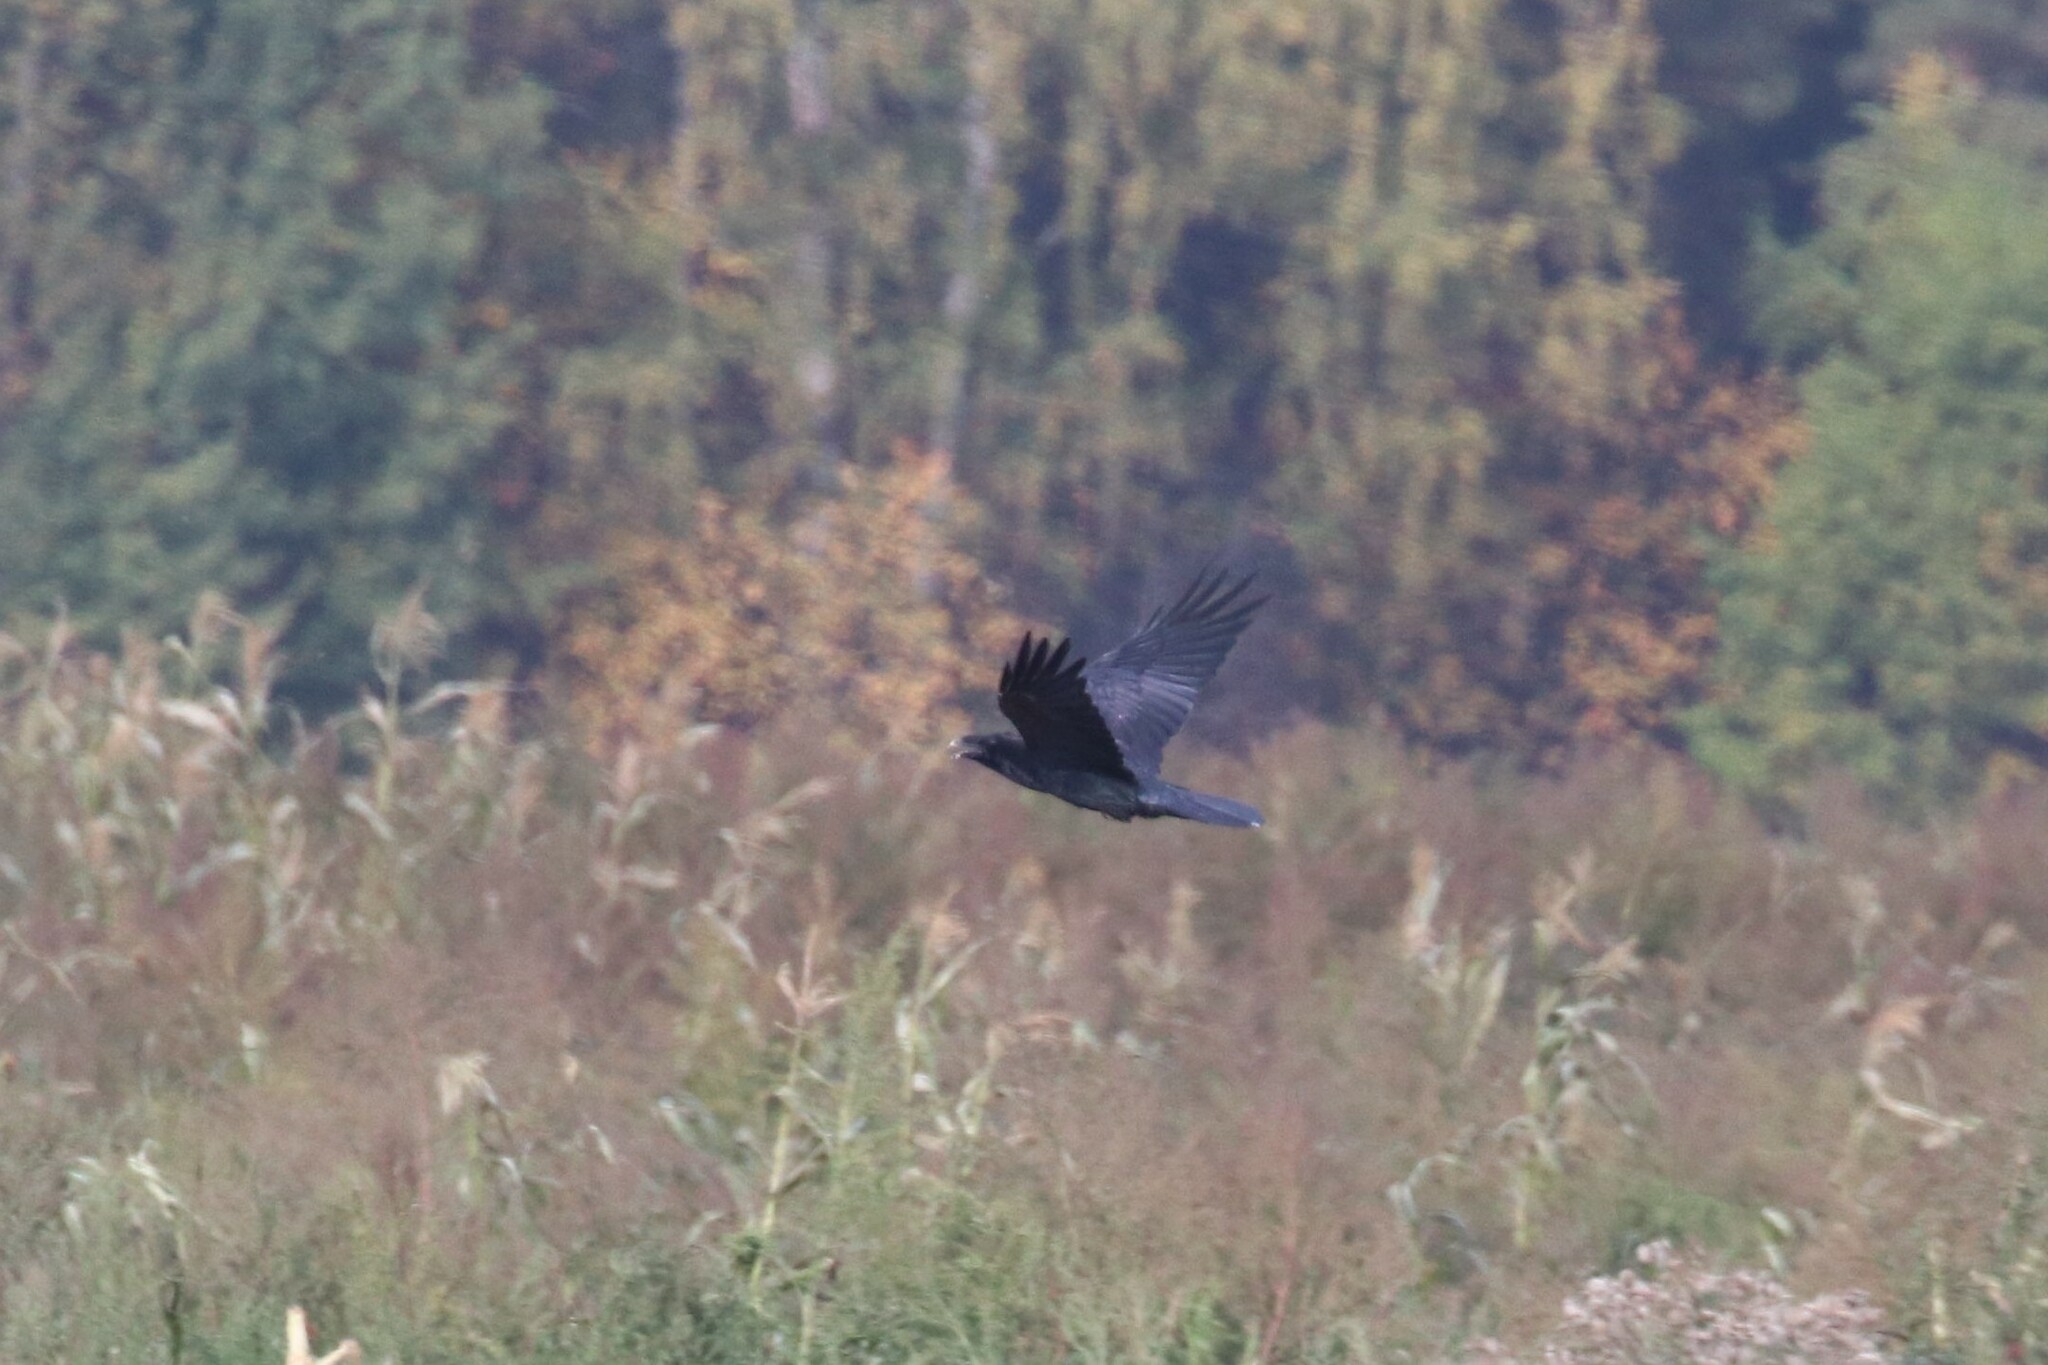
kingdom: Animalia
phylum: Chordata
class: Aves
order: Passeriformes
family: Corvidae
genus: Corvus
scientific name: Corvus corax
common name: Common raven
